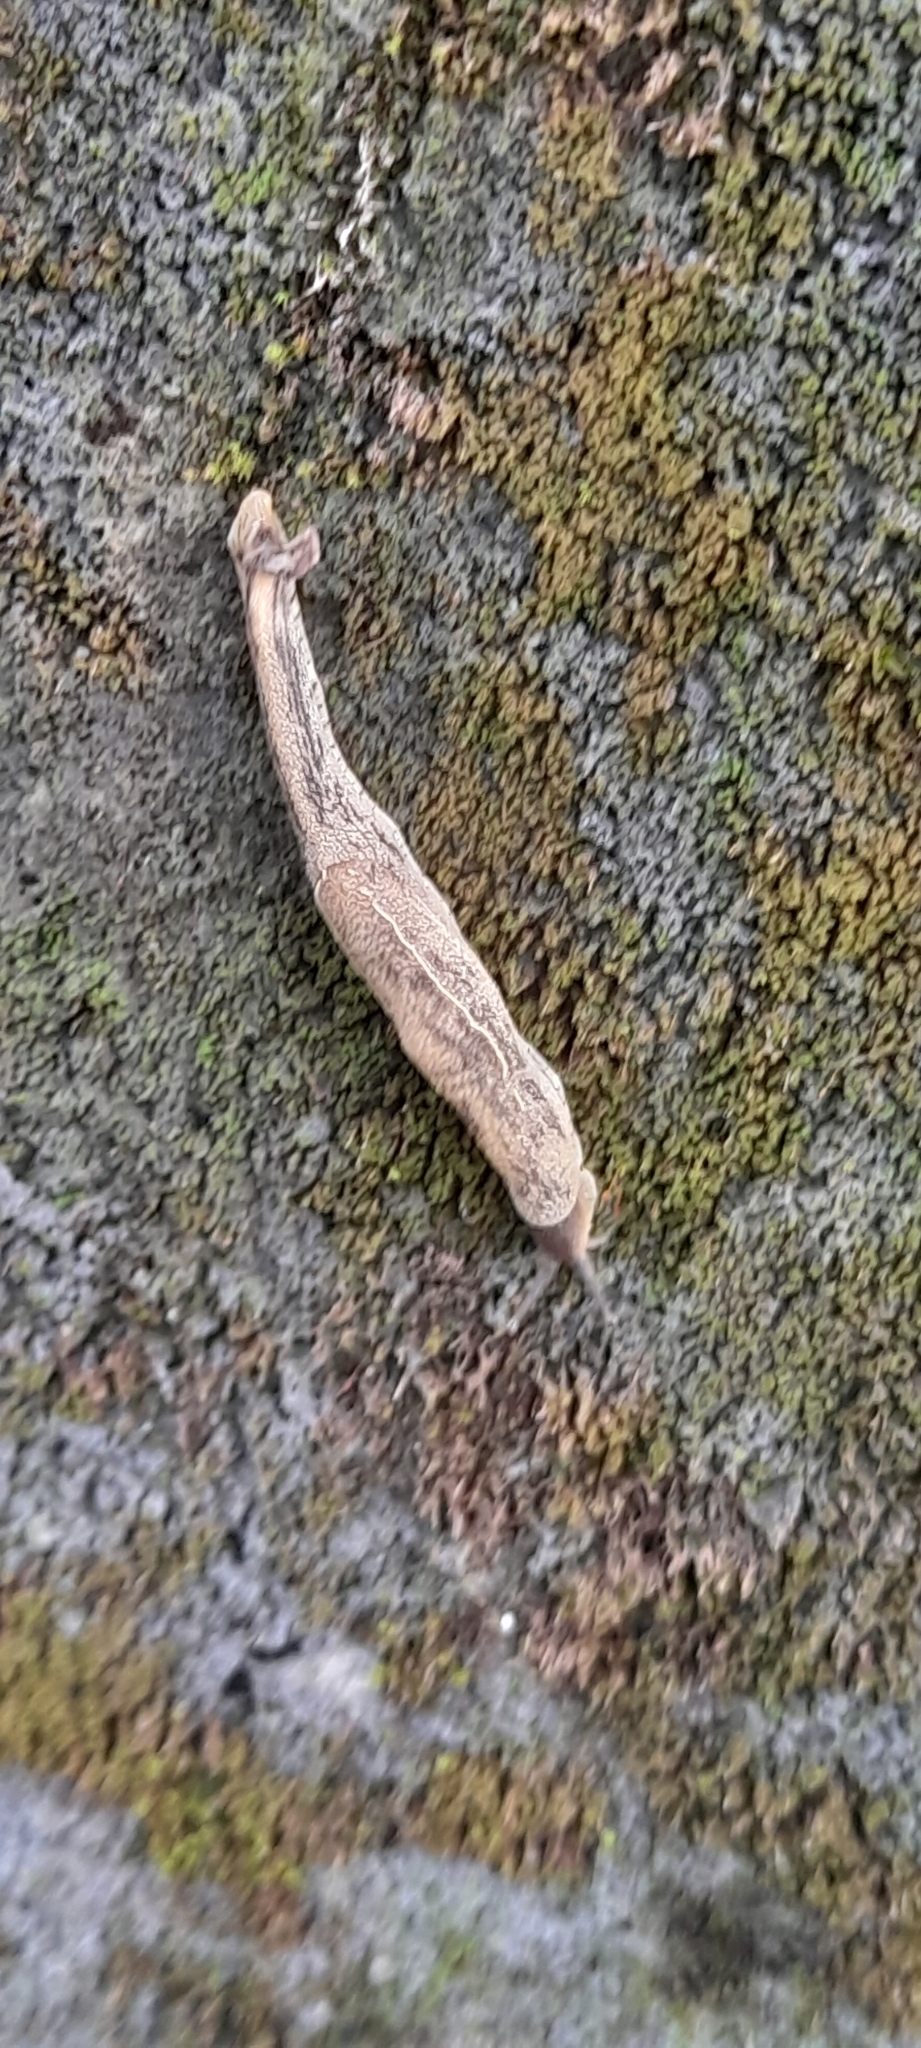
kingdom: Animalia
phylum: Mollusca
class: Gastropoda
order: Stylommatophora
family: Ariophantidae
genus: Mariaella
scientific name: Mariaella dussumieri
